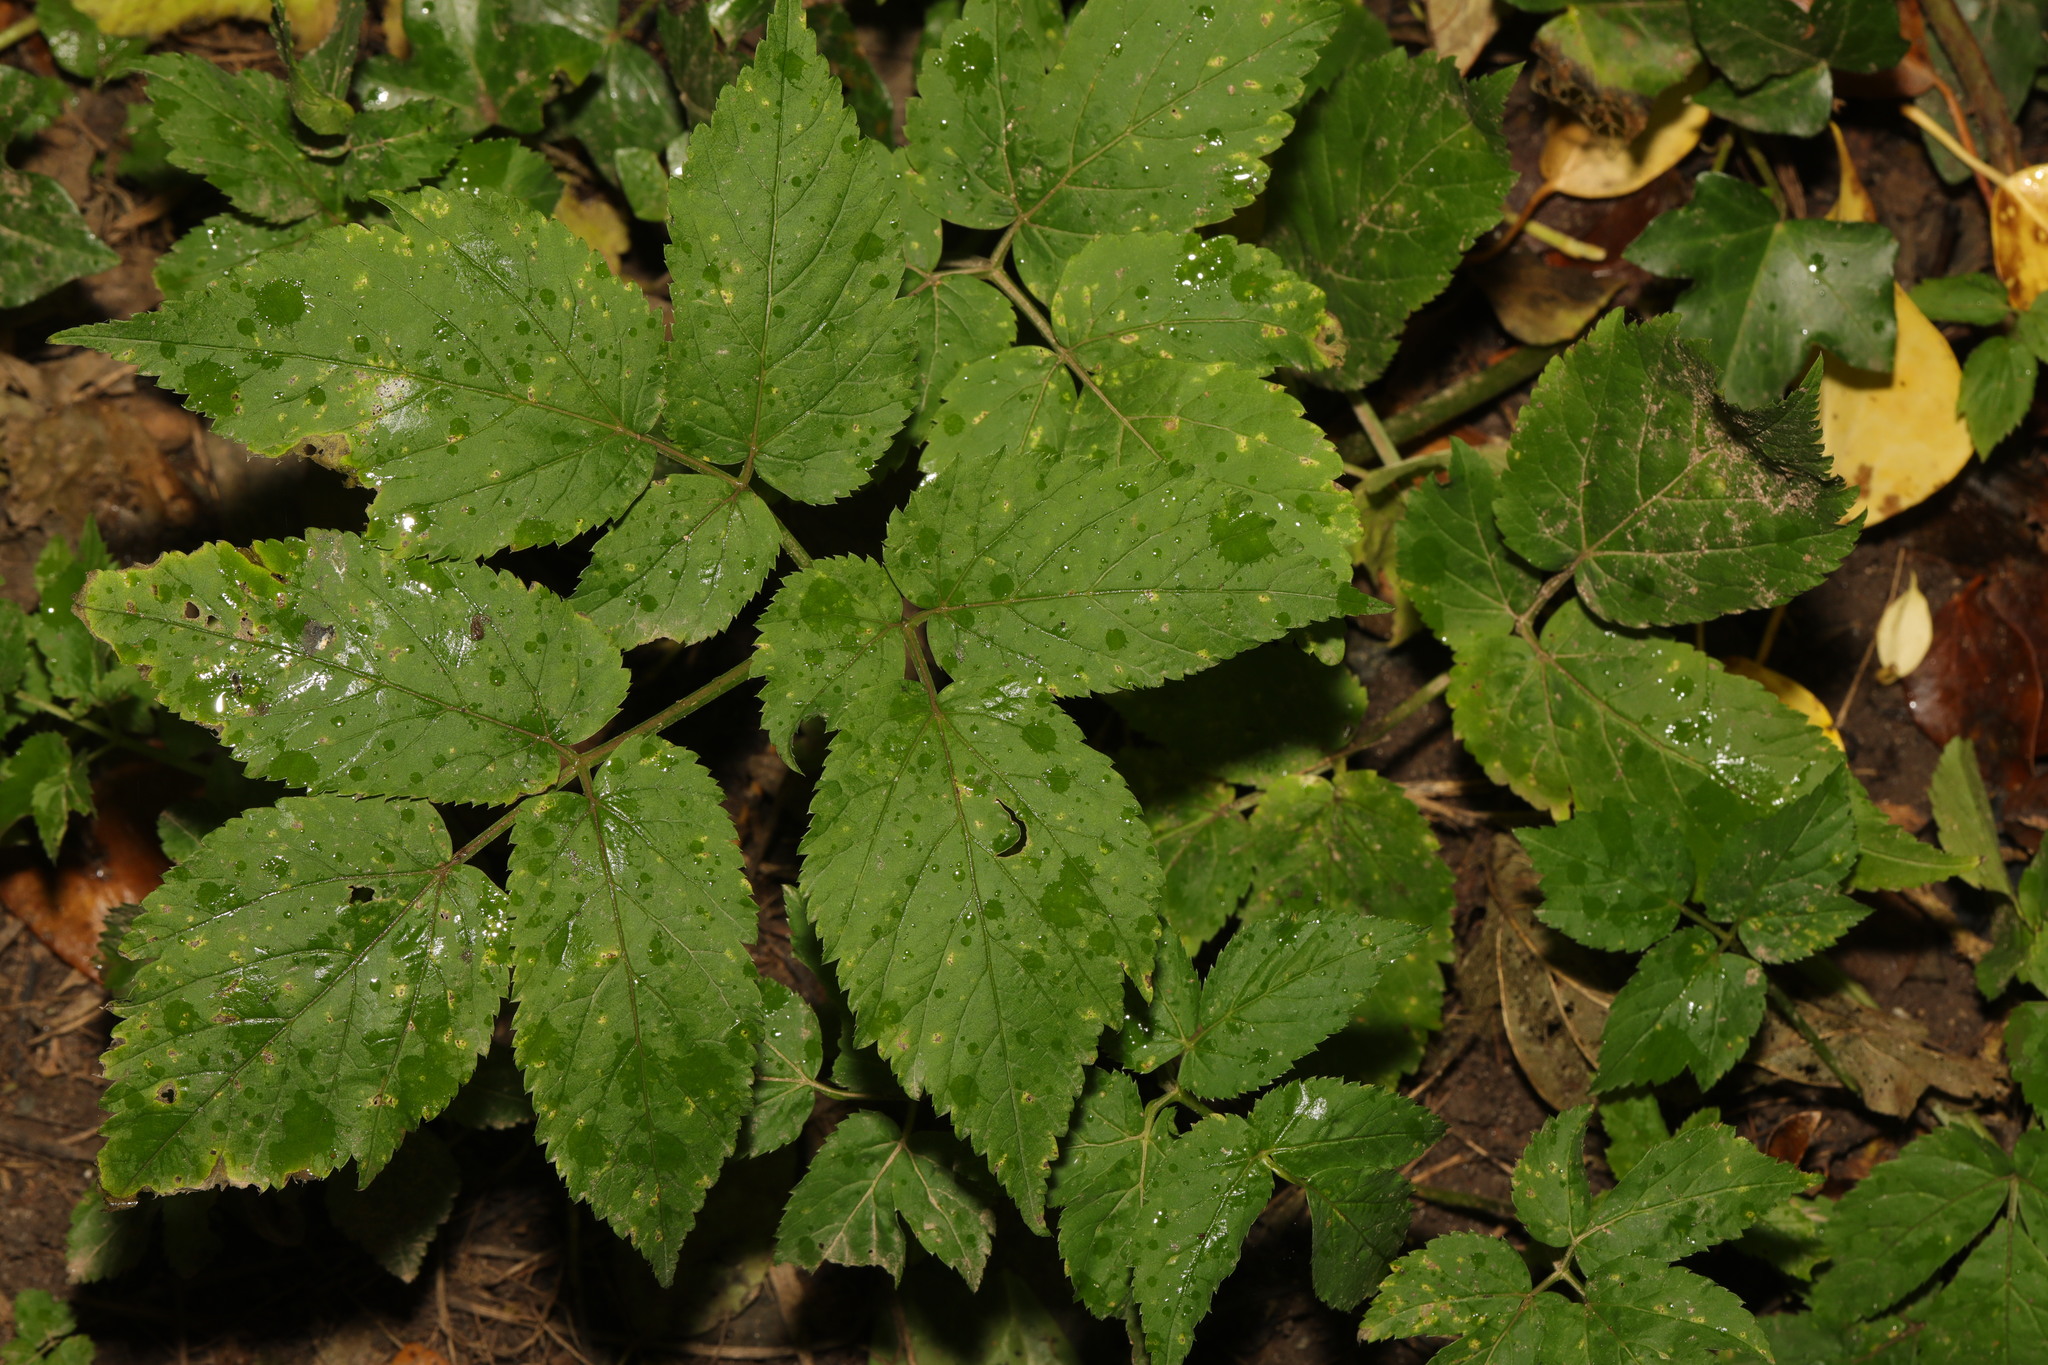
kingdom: Plantae
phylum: Tracheophyta
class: Magnoliopsida
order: Apiales
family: Apiaceae
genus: Aegopodium
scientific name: Aegopodium podagraria
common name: Ground-elder
